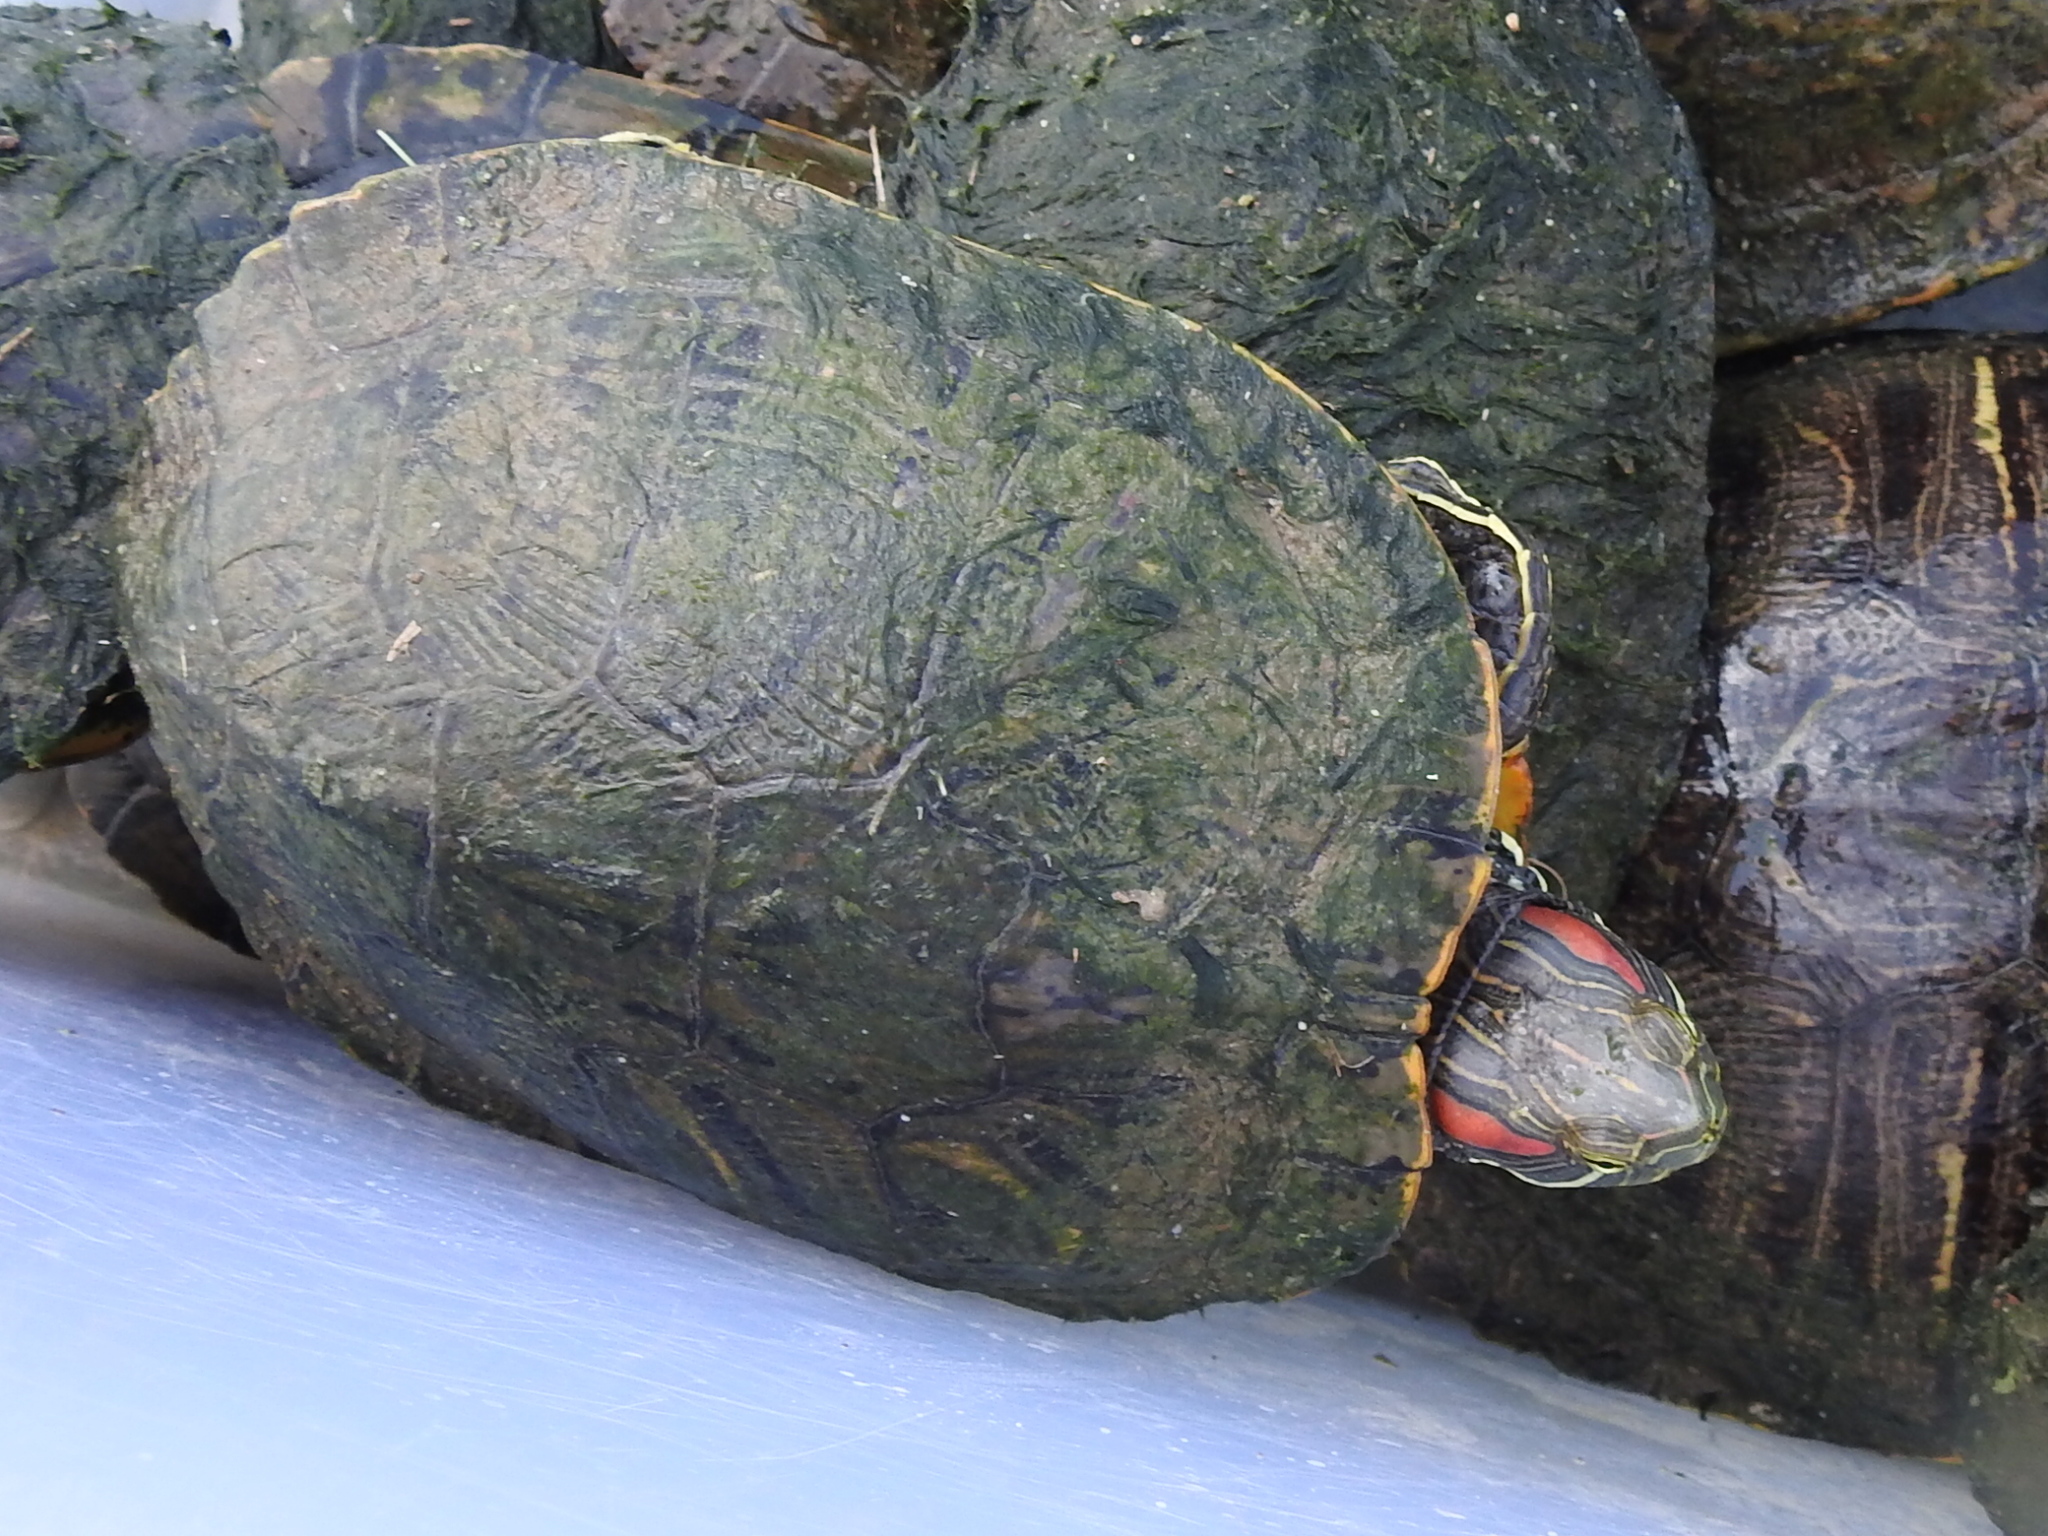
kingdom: Animalia
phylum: Chordata
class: Testudines
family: Emydidae
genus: Trachemys
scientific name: Trachemys scripta
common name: Slider
